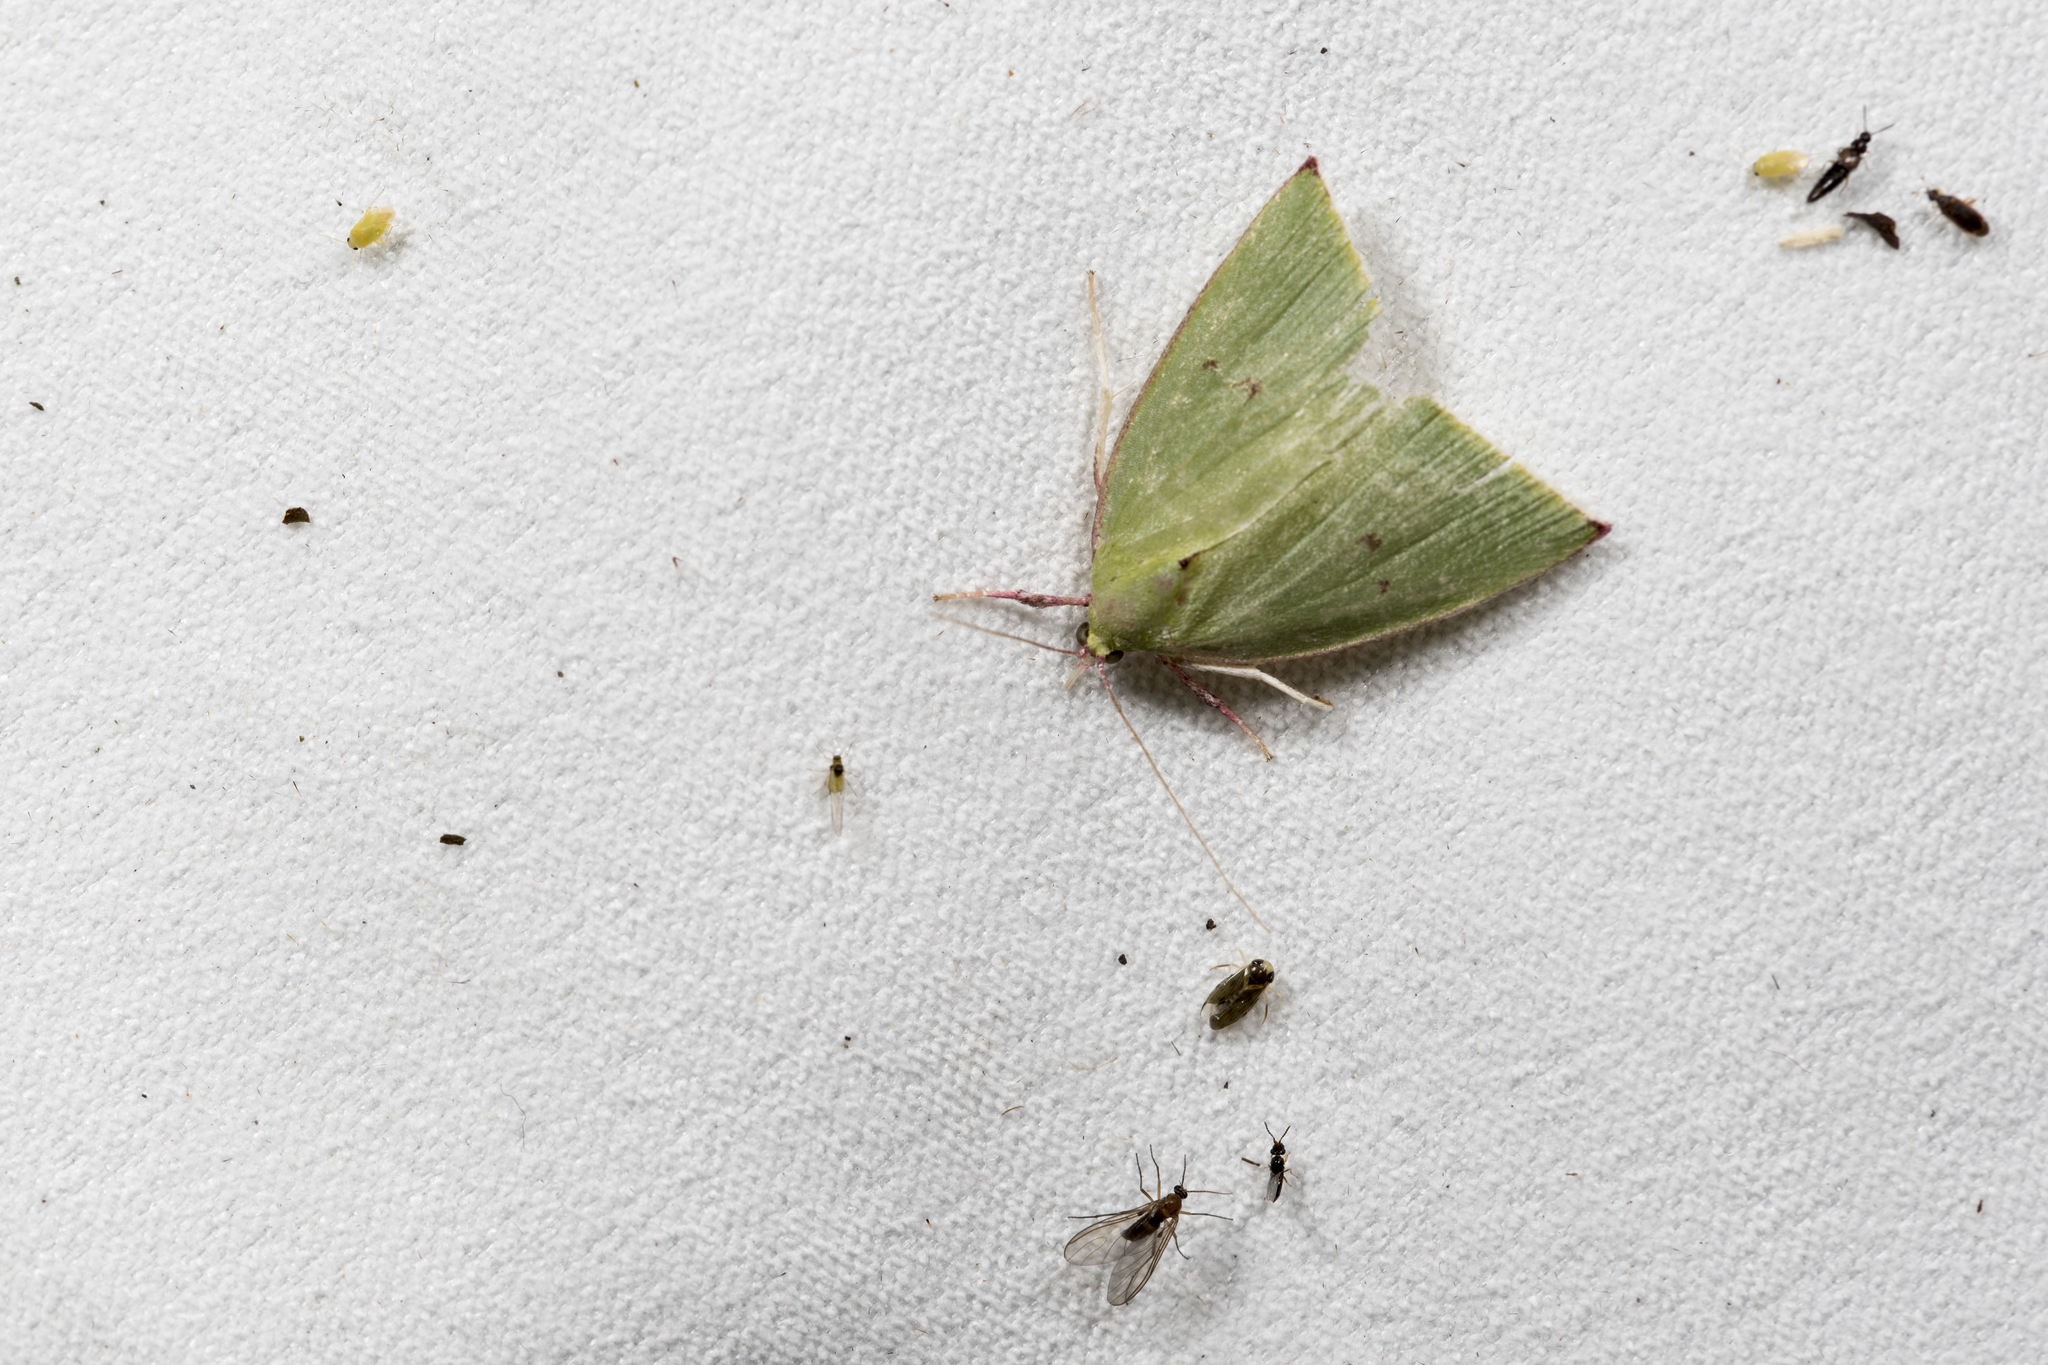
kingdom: Animalia
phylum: Arthropoda
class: Insecta
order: Lepidoptera
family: Nolidae
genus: Tyana
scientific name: Tyana falcata
